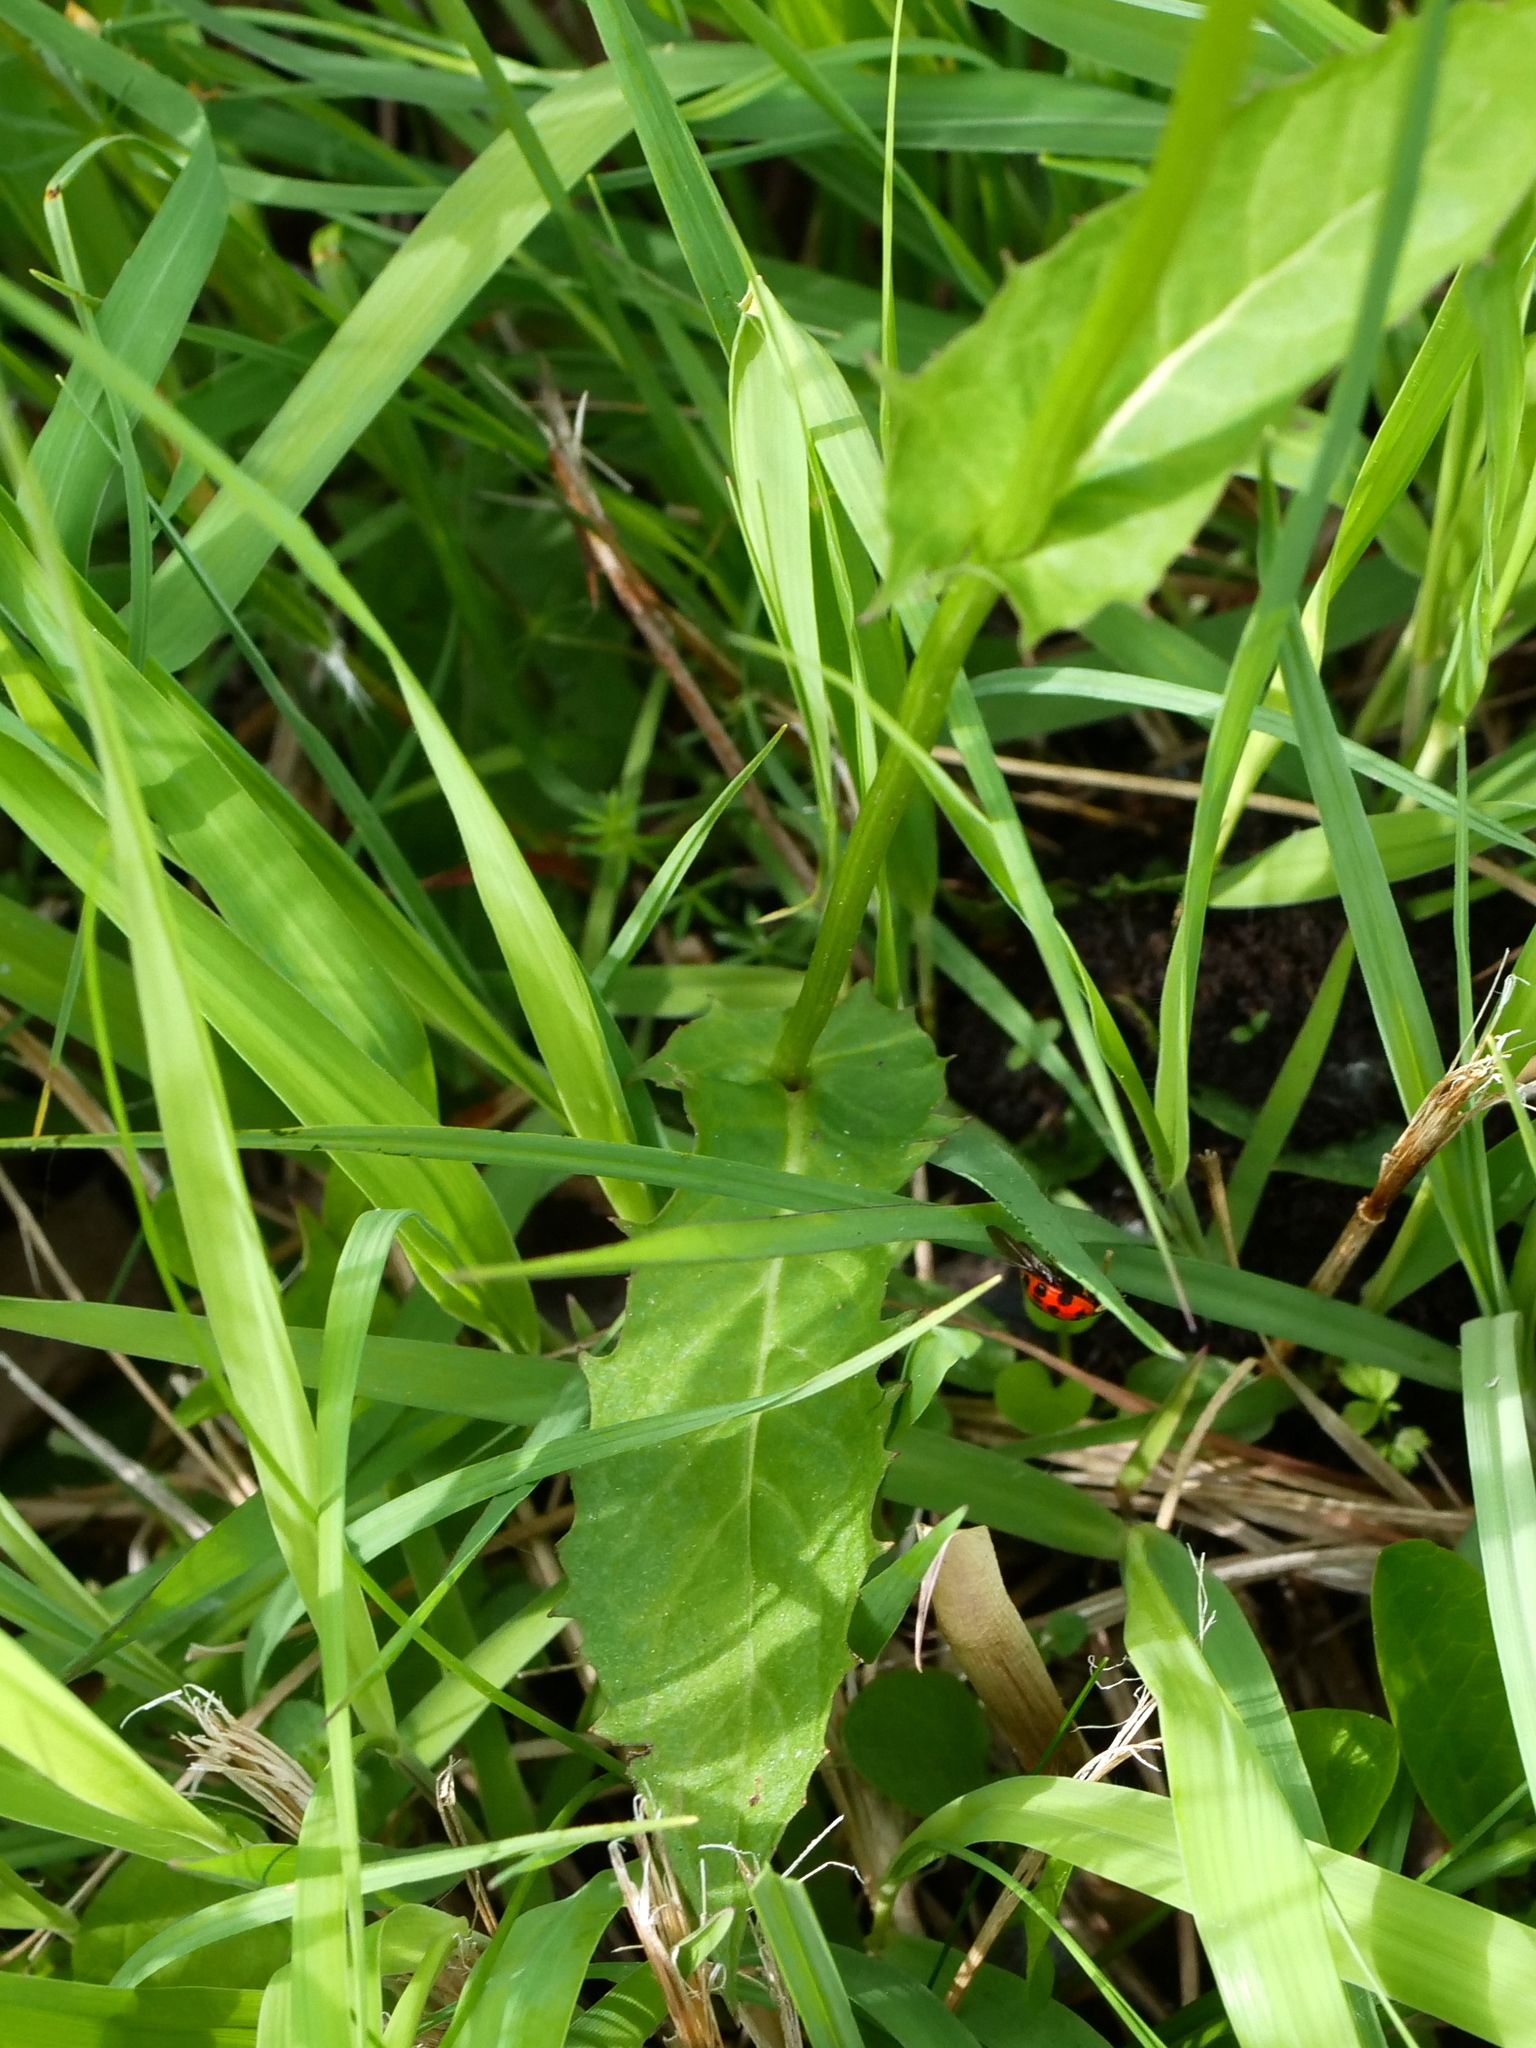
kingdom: Plantae
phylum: Tracheophyta
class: Magnoliopsida
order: Asterales
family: Asteraceae
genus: Crepis
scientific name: Crepis paludosa
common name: Marsh hawk's-beard
